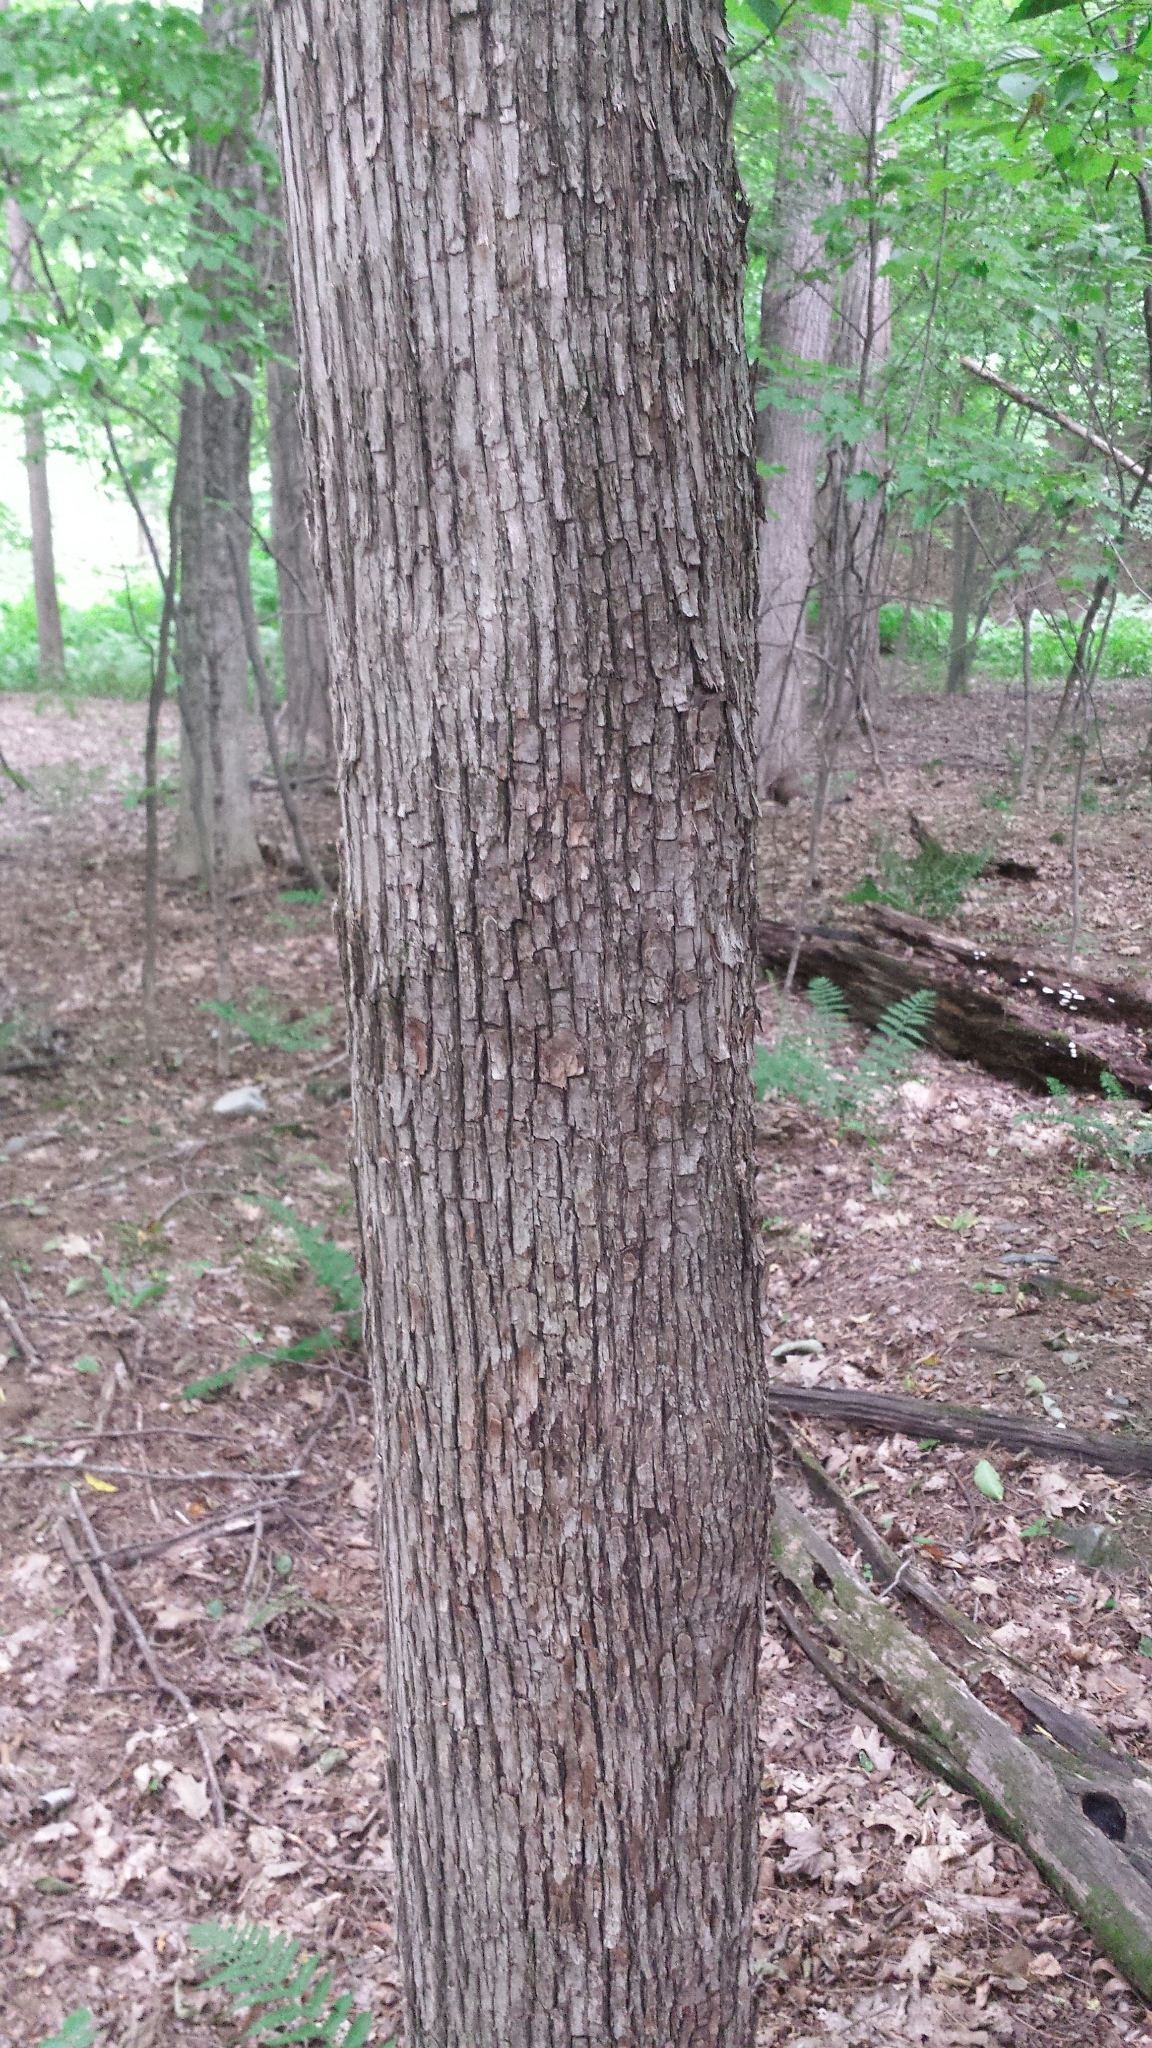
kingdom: Plantae
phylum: Tracheophyta
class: Magnoliopsida
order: Fagales
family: Betulaceae
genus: Ostrya
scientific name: Ostrya virginiana
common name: Ironwood
